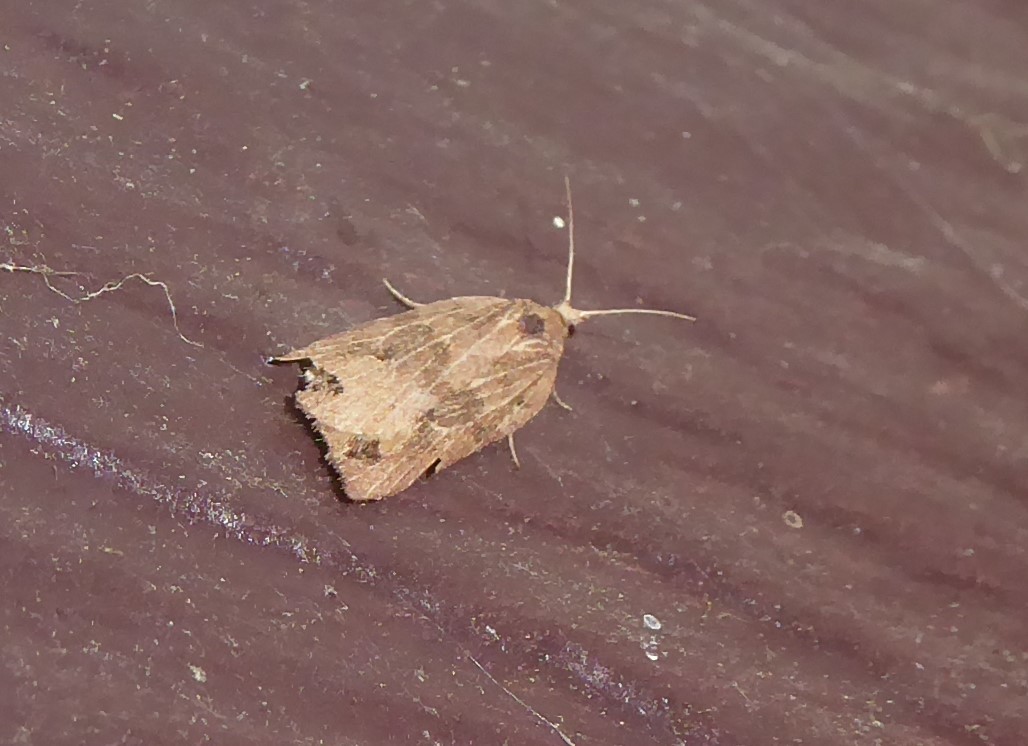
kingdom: Animalia
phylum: Arthropoda
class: Insecta
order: Lepidoptera
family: Tortricidae
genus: Planotortrix
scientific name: Planotortrix notophaea
